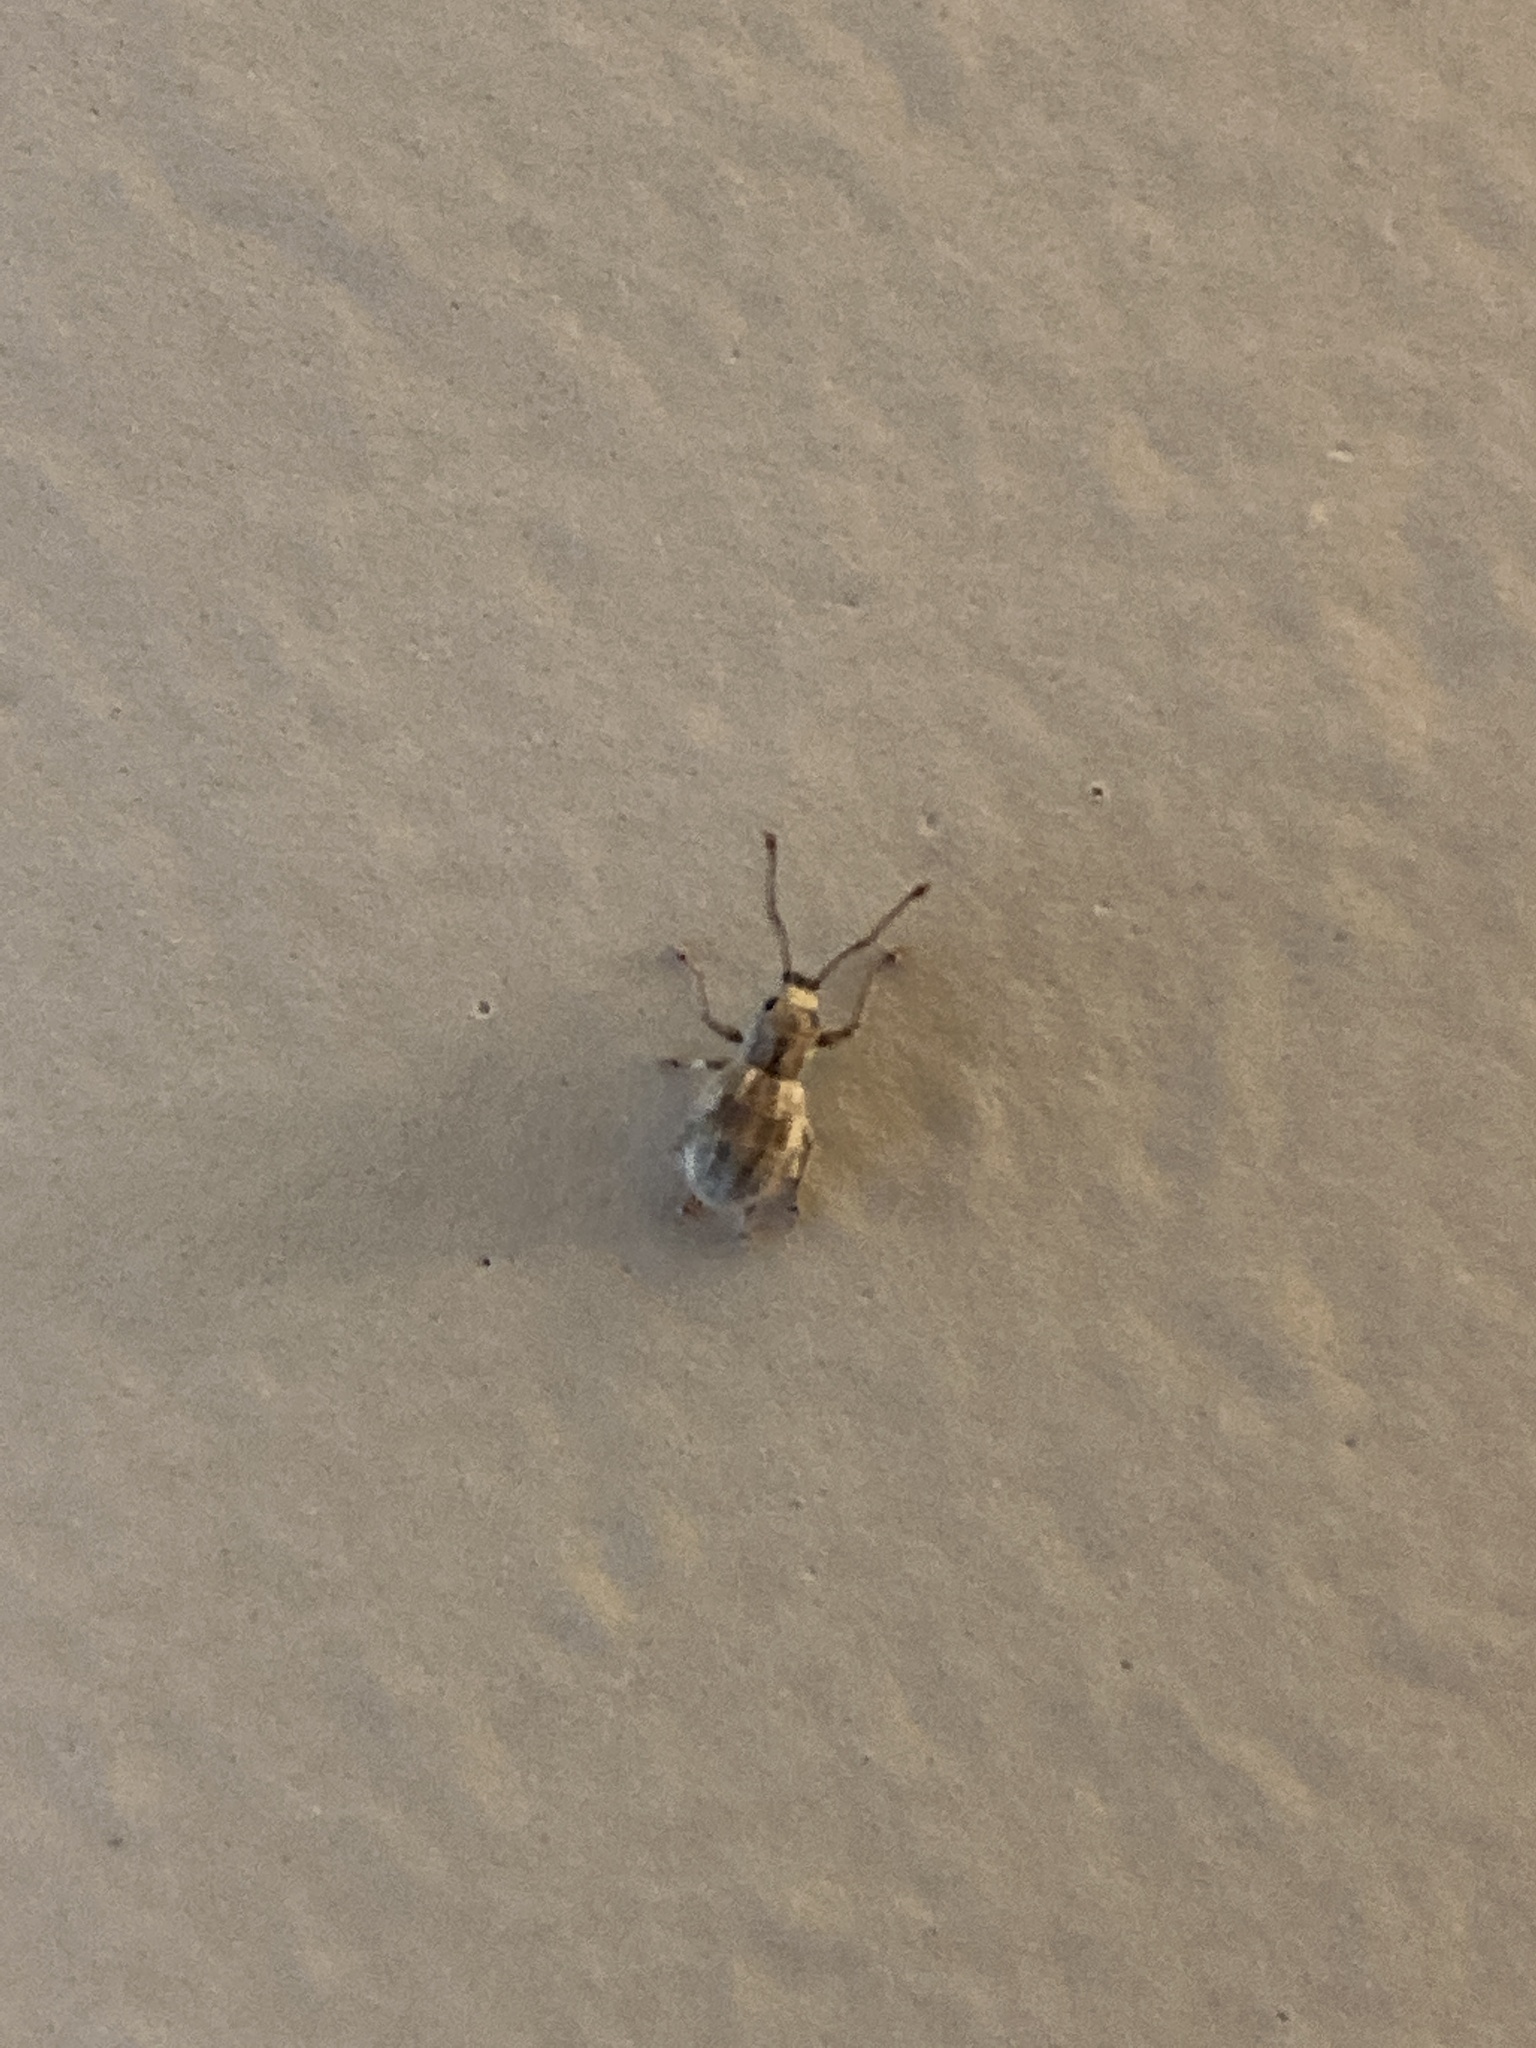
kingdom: Animalia
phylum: Arthropoda
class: Insecta
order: Coleoptera
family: Curculionidae
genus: Calomycterus
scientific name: Calomycterus setarius
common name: Weevil
